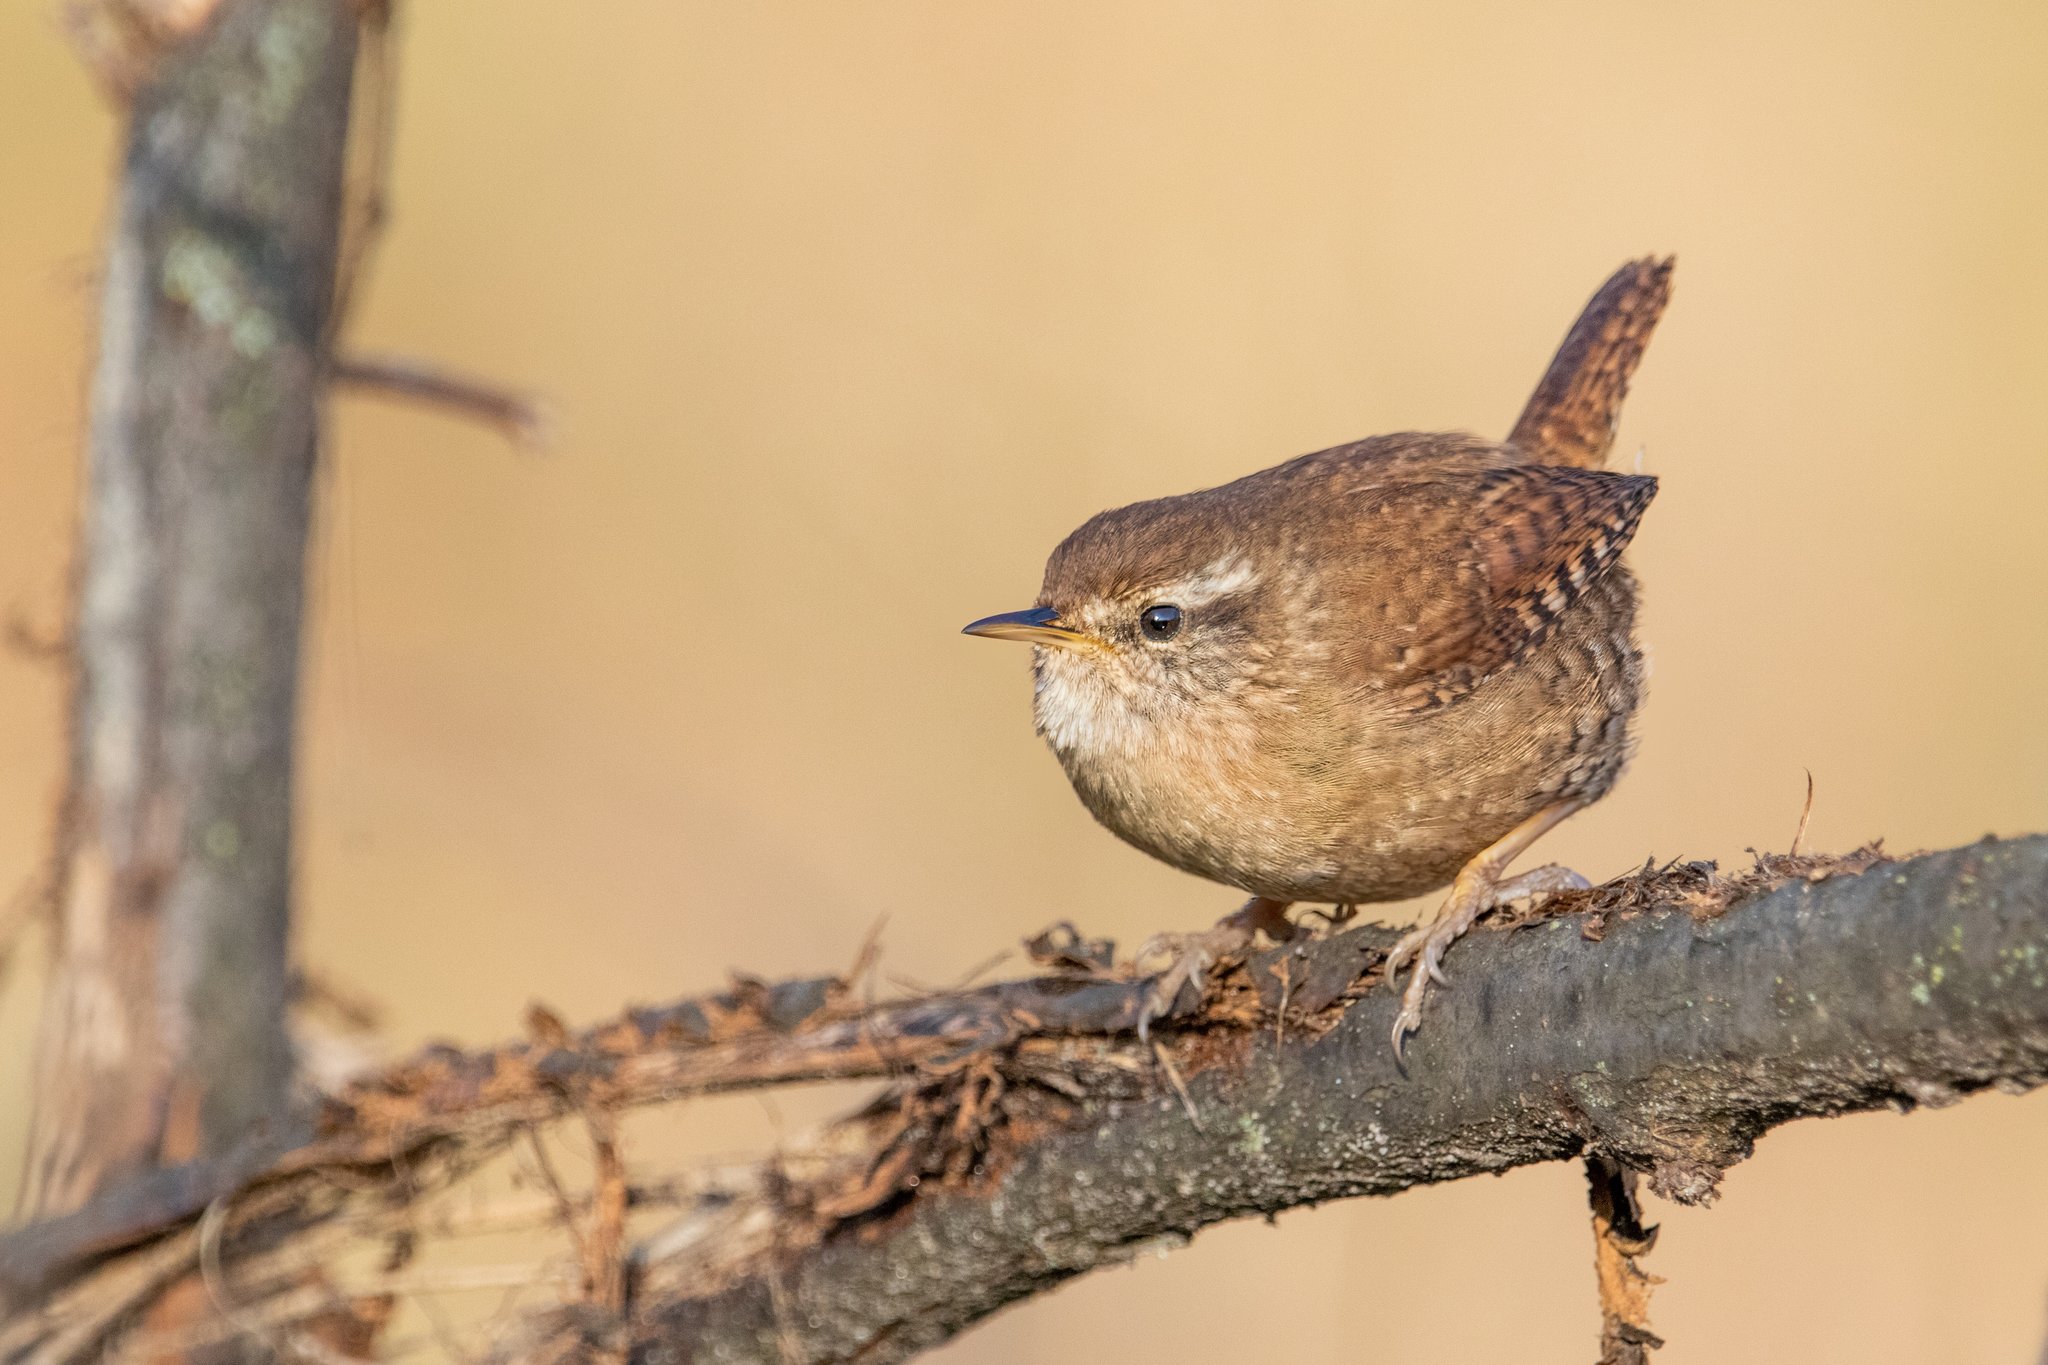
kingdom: Animalia
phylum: Chordata
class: Aves
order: Passeriformes
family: Troglodytidae
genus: Troglodytes
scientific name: Troglodytes troglodytes
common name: Eurasian wren
